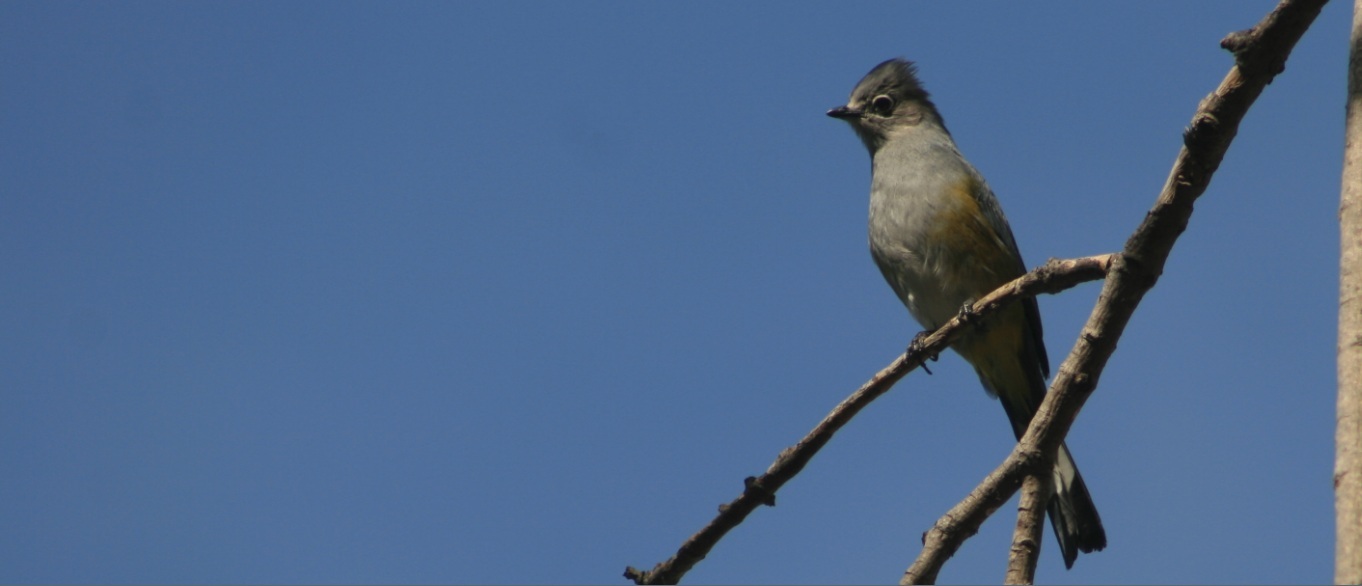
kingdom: Animalia
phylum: Chordata
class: Aves
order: Passeriformes
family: Ptilogonatidae
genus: Ptilogonys
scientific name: Ptilogonys cinereus
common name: Gray silky-flycatcher
